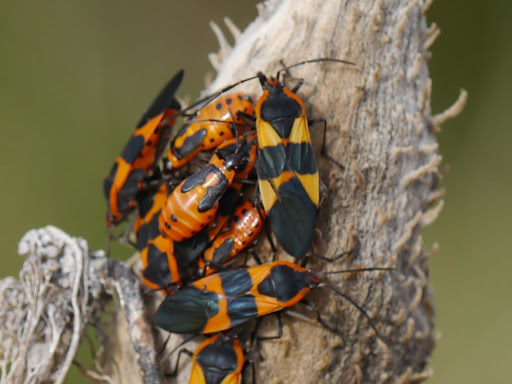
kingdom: Animalia
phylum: Arthropoda
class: Insecta
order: Hemiptera
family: Lygaeidae
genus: Oncopeltus
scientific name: Oncopeltus fasciatus
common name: Large milkweed bug
